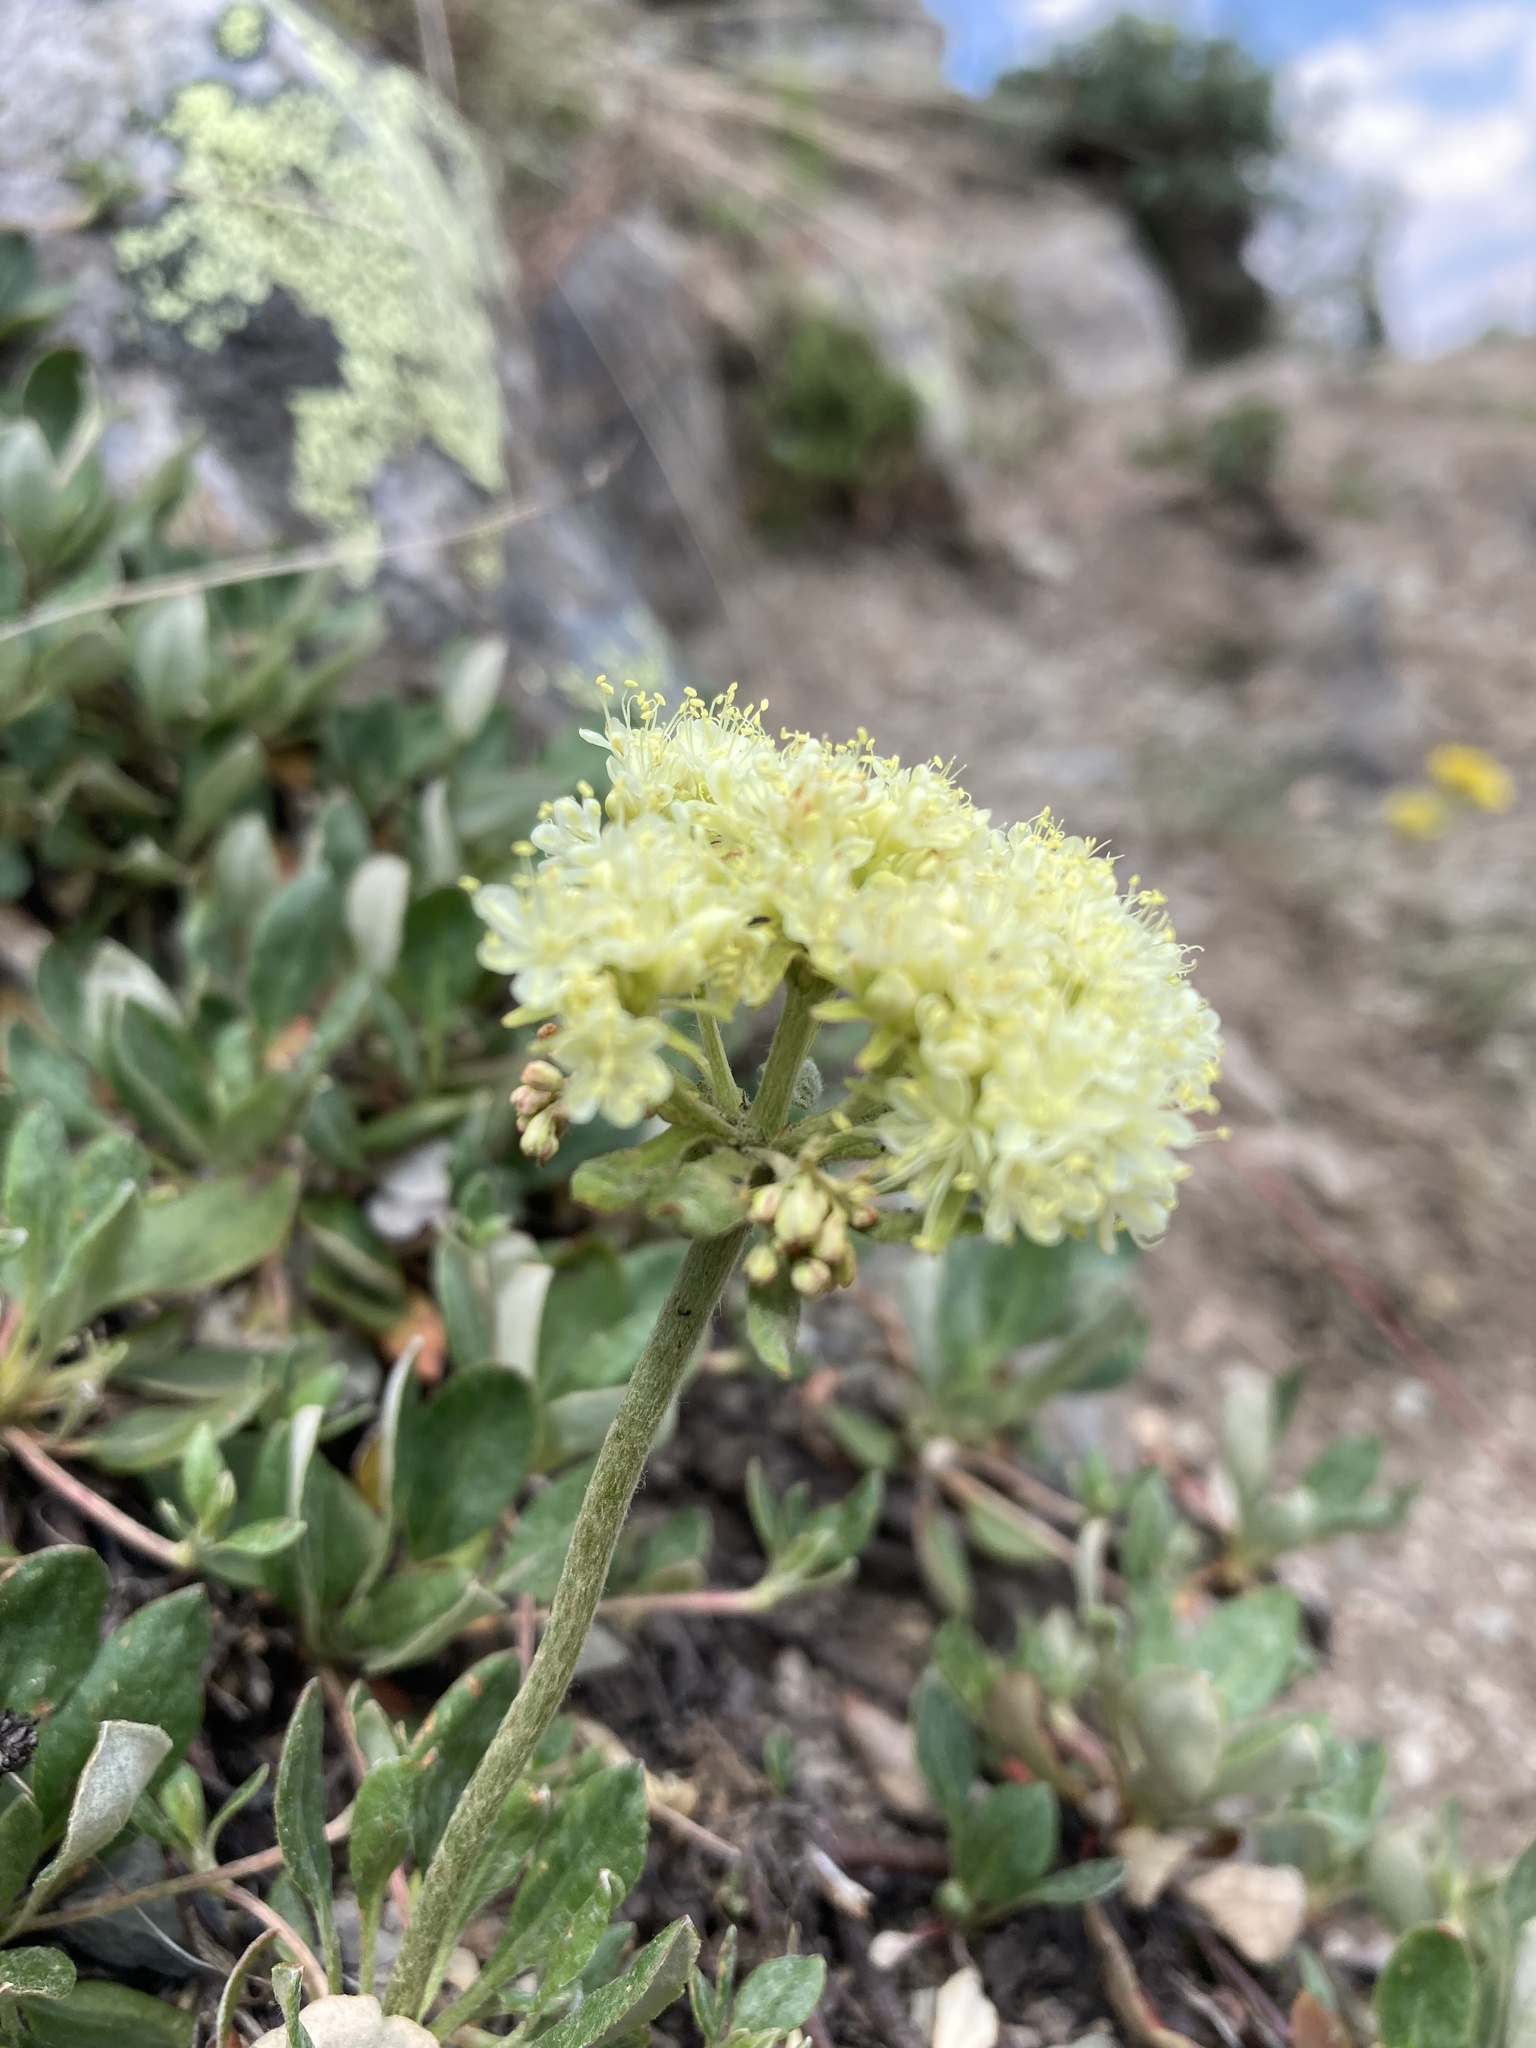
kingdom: Plantae
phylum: Tracheophyta
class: Magnoliopsida
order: Caryophyllales
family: Polygonaceae
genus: Eriogonum
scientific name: Eriogonum umbellatum
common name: Sulfur-buckwheat
